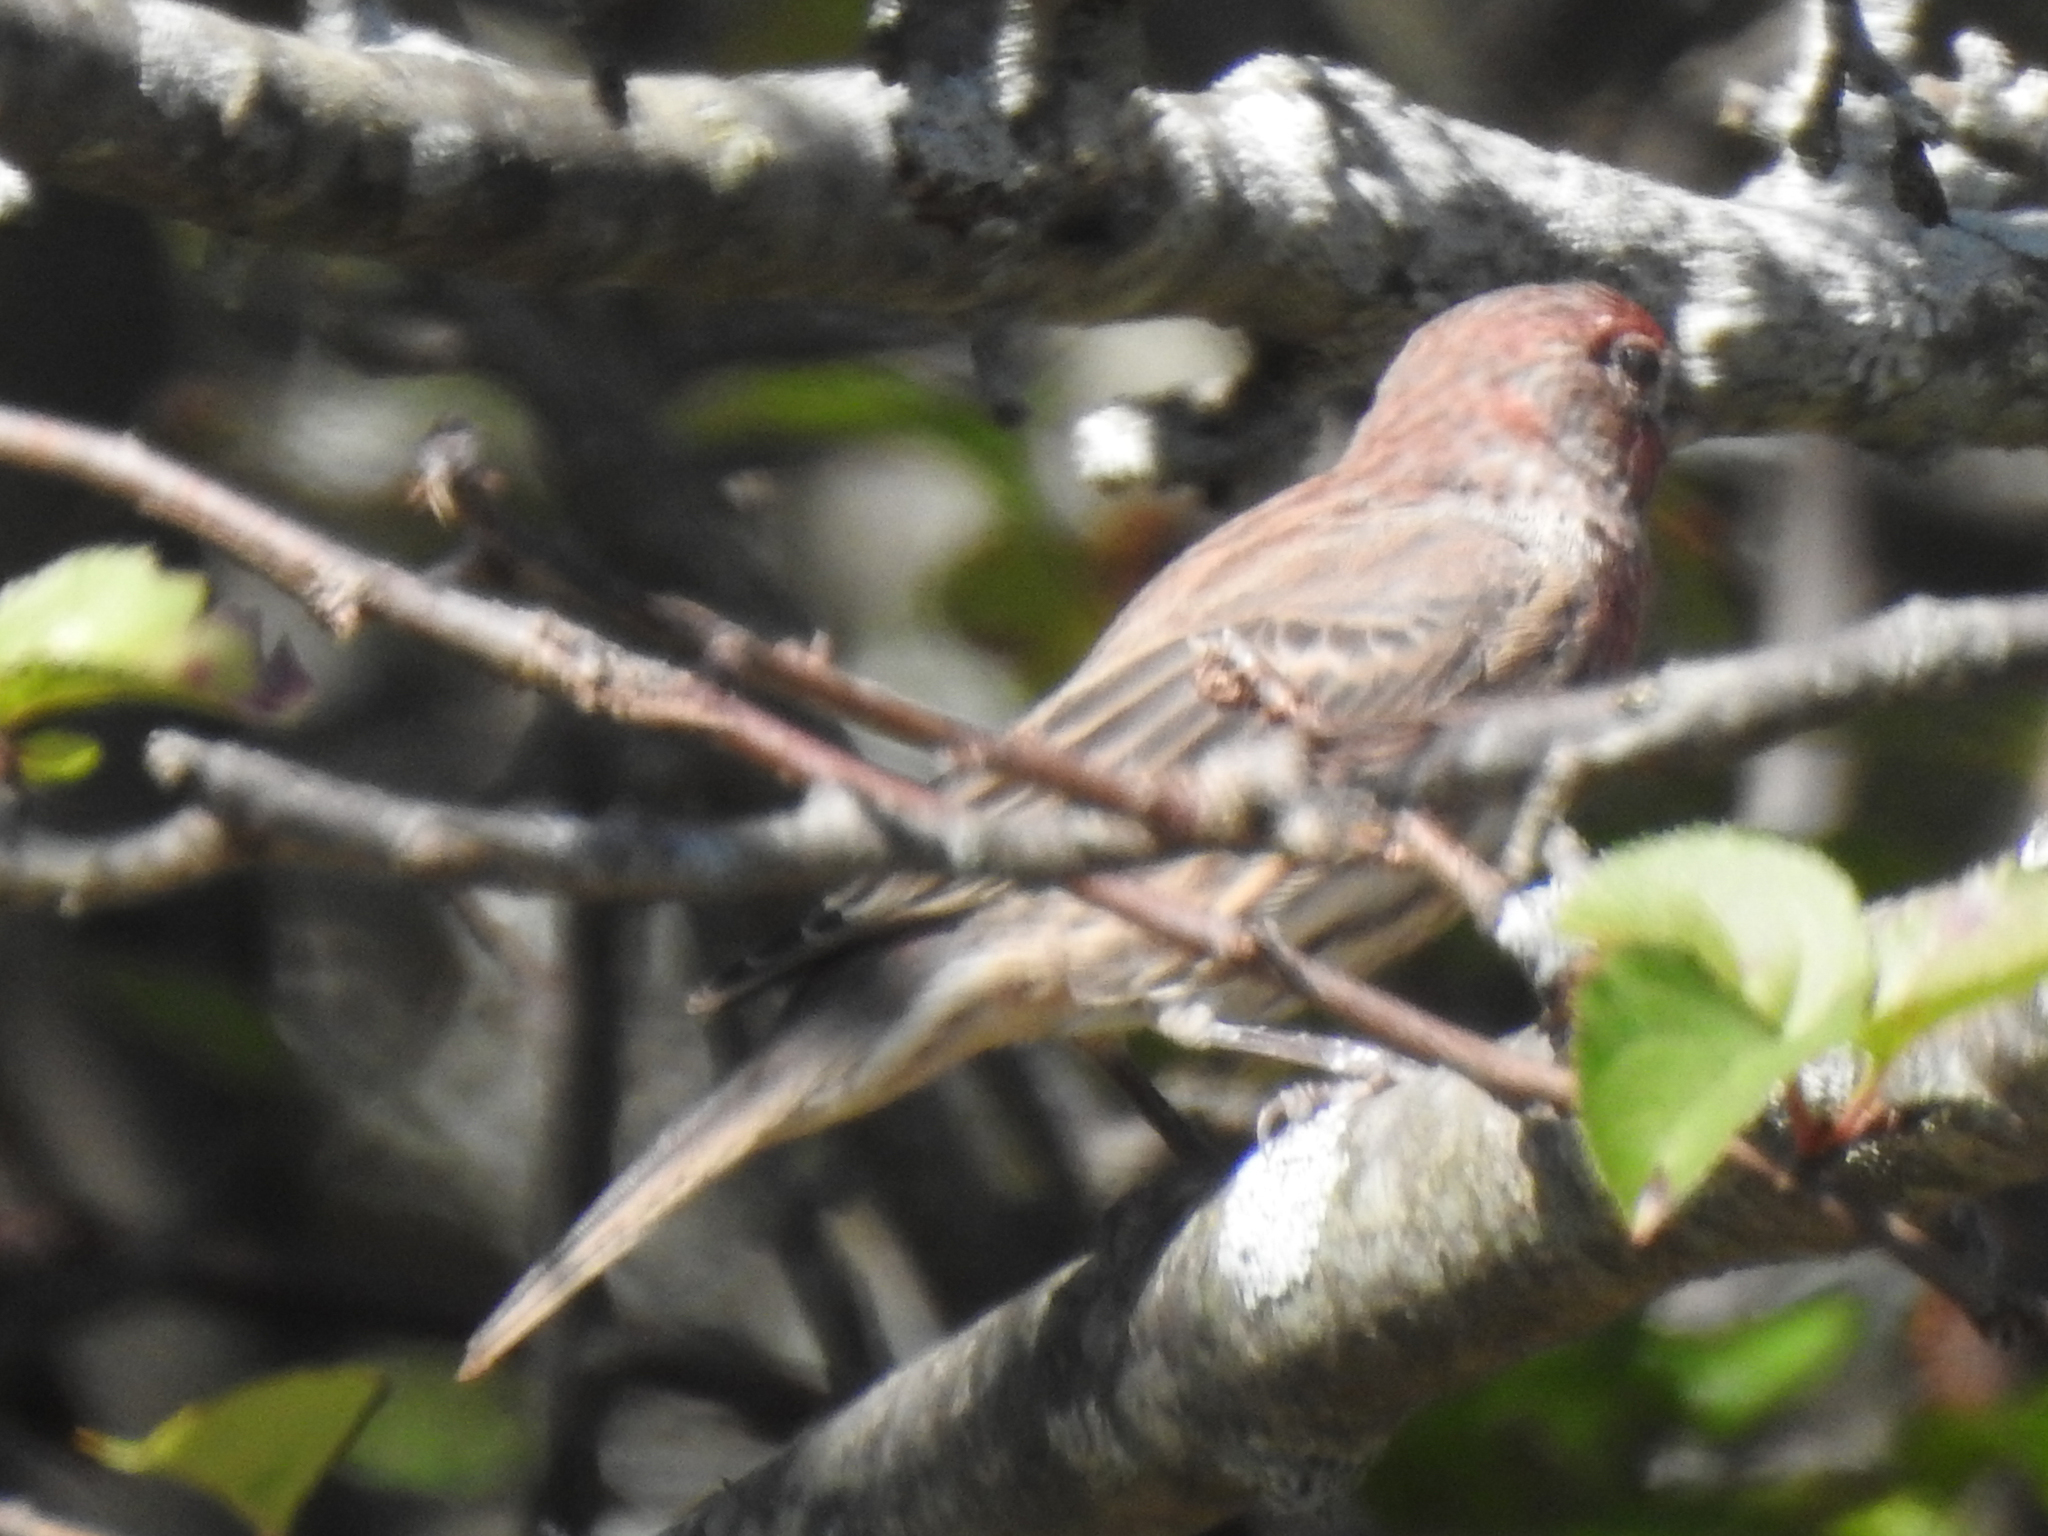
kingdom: Animalia
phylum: Chordata
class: Aves
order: Passeriformes
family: Fringillidae
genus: Haemorhous
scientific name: Haemorhous mexicanus
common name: House finch
